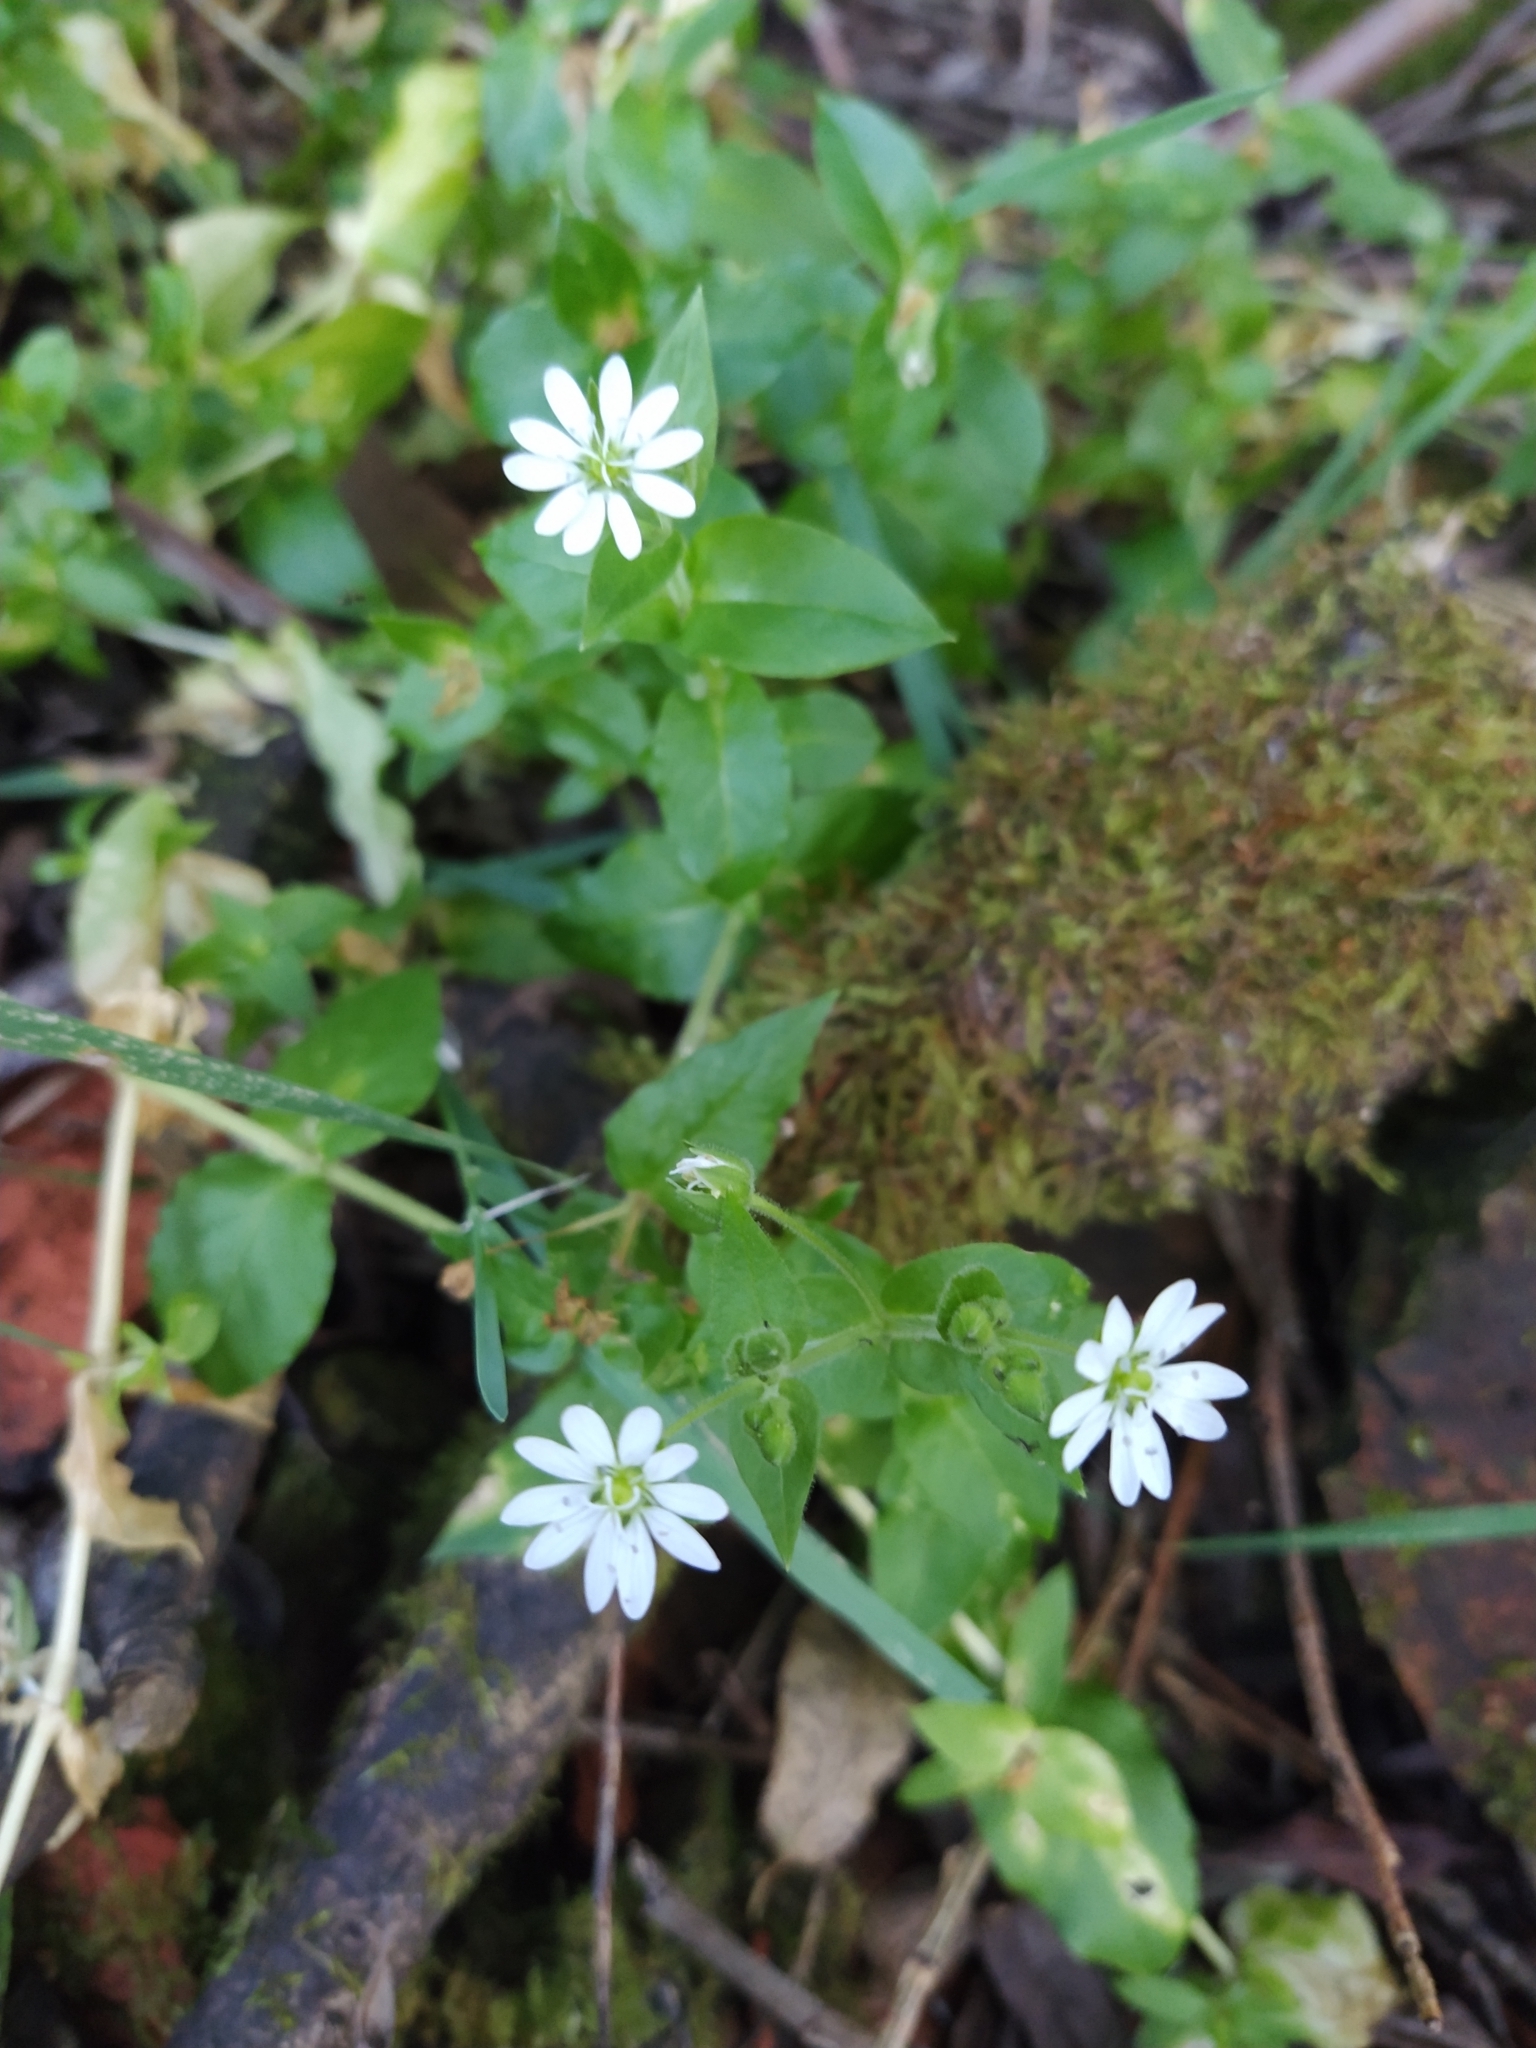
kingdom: Plantae
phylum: Tracheophyta
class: Magnoliopsida
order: Caryophyllales
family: Caryophyllaceae
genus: Stellaria
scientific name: Stellaria aquatica
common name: Water chickweed
